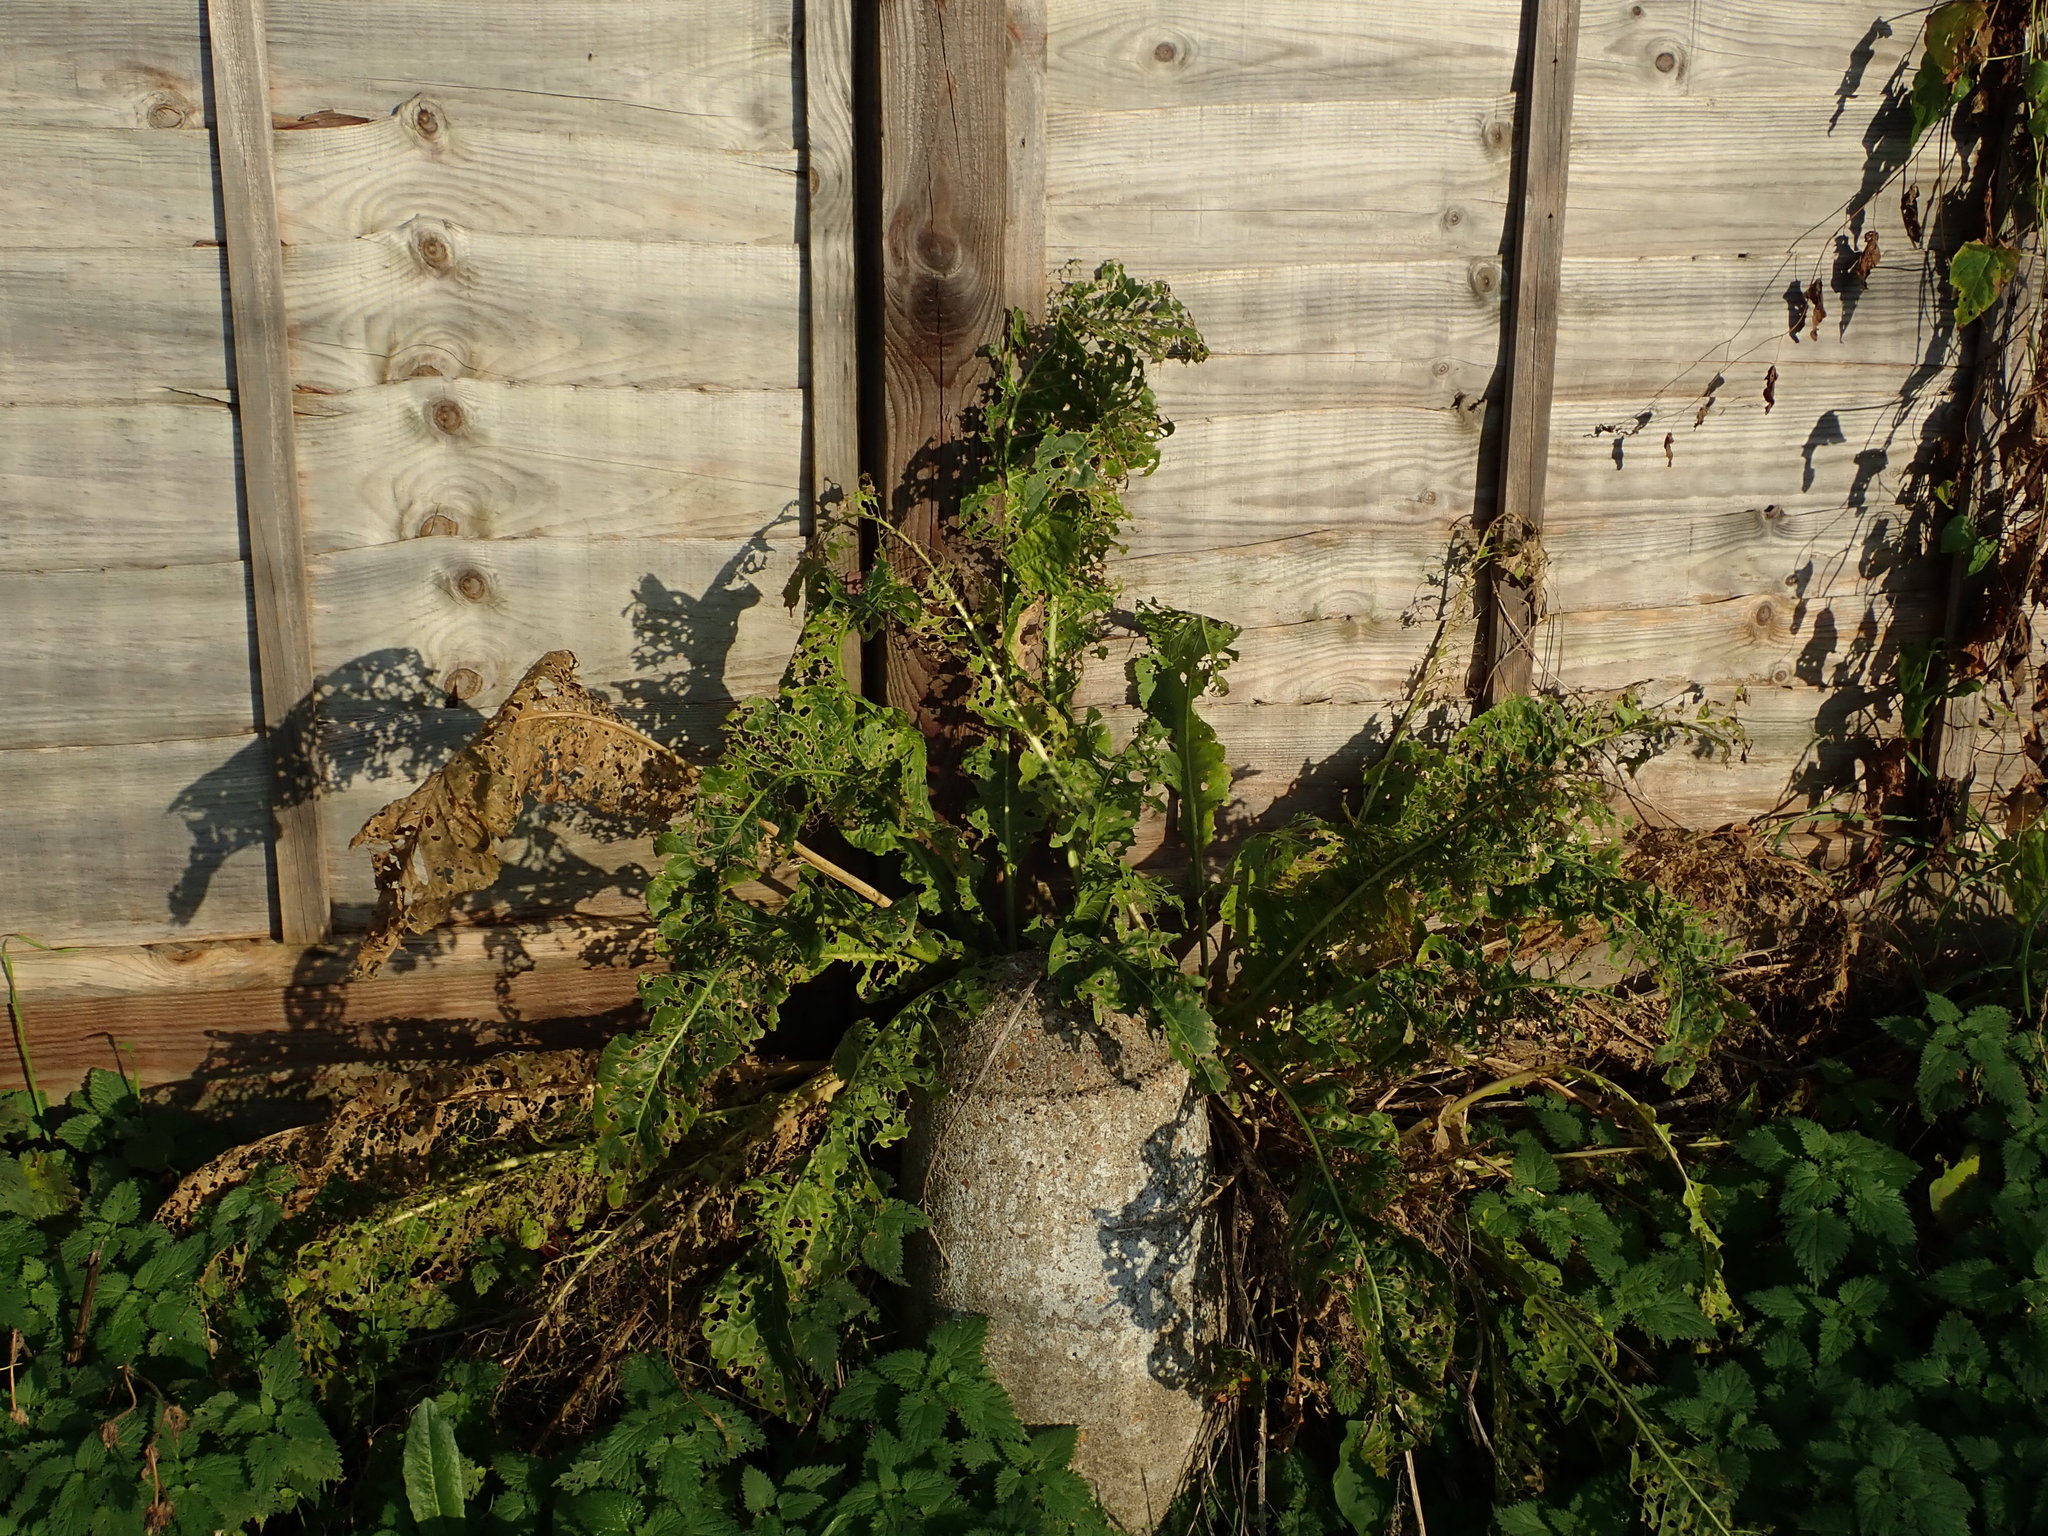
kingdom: Plantae
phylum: Tracheophyta
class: Magnoliopsida
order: Brassicales
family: Brassicaceae
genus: Armoracia
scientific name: Armoracia rusticana
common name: Horseradish
